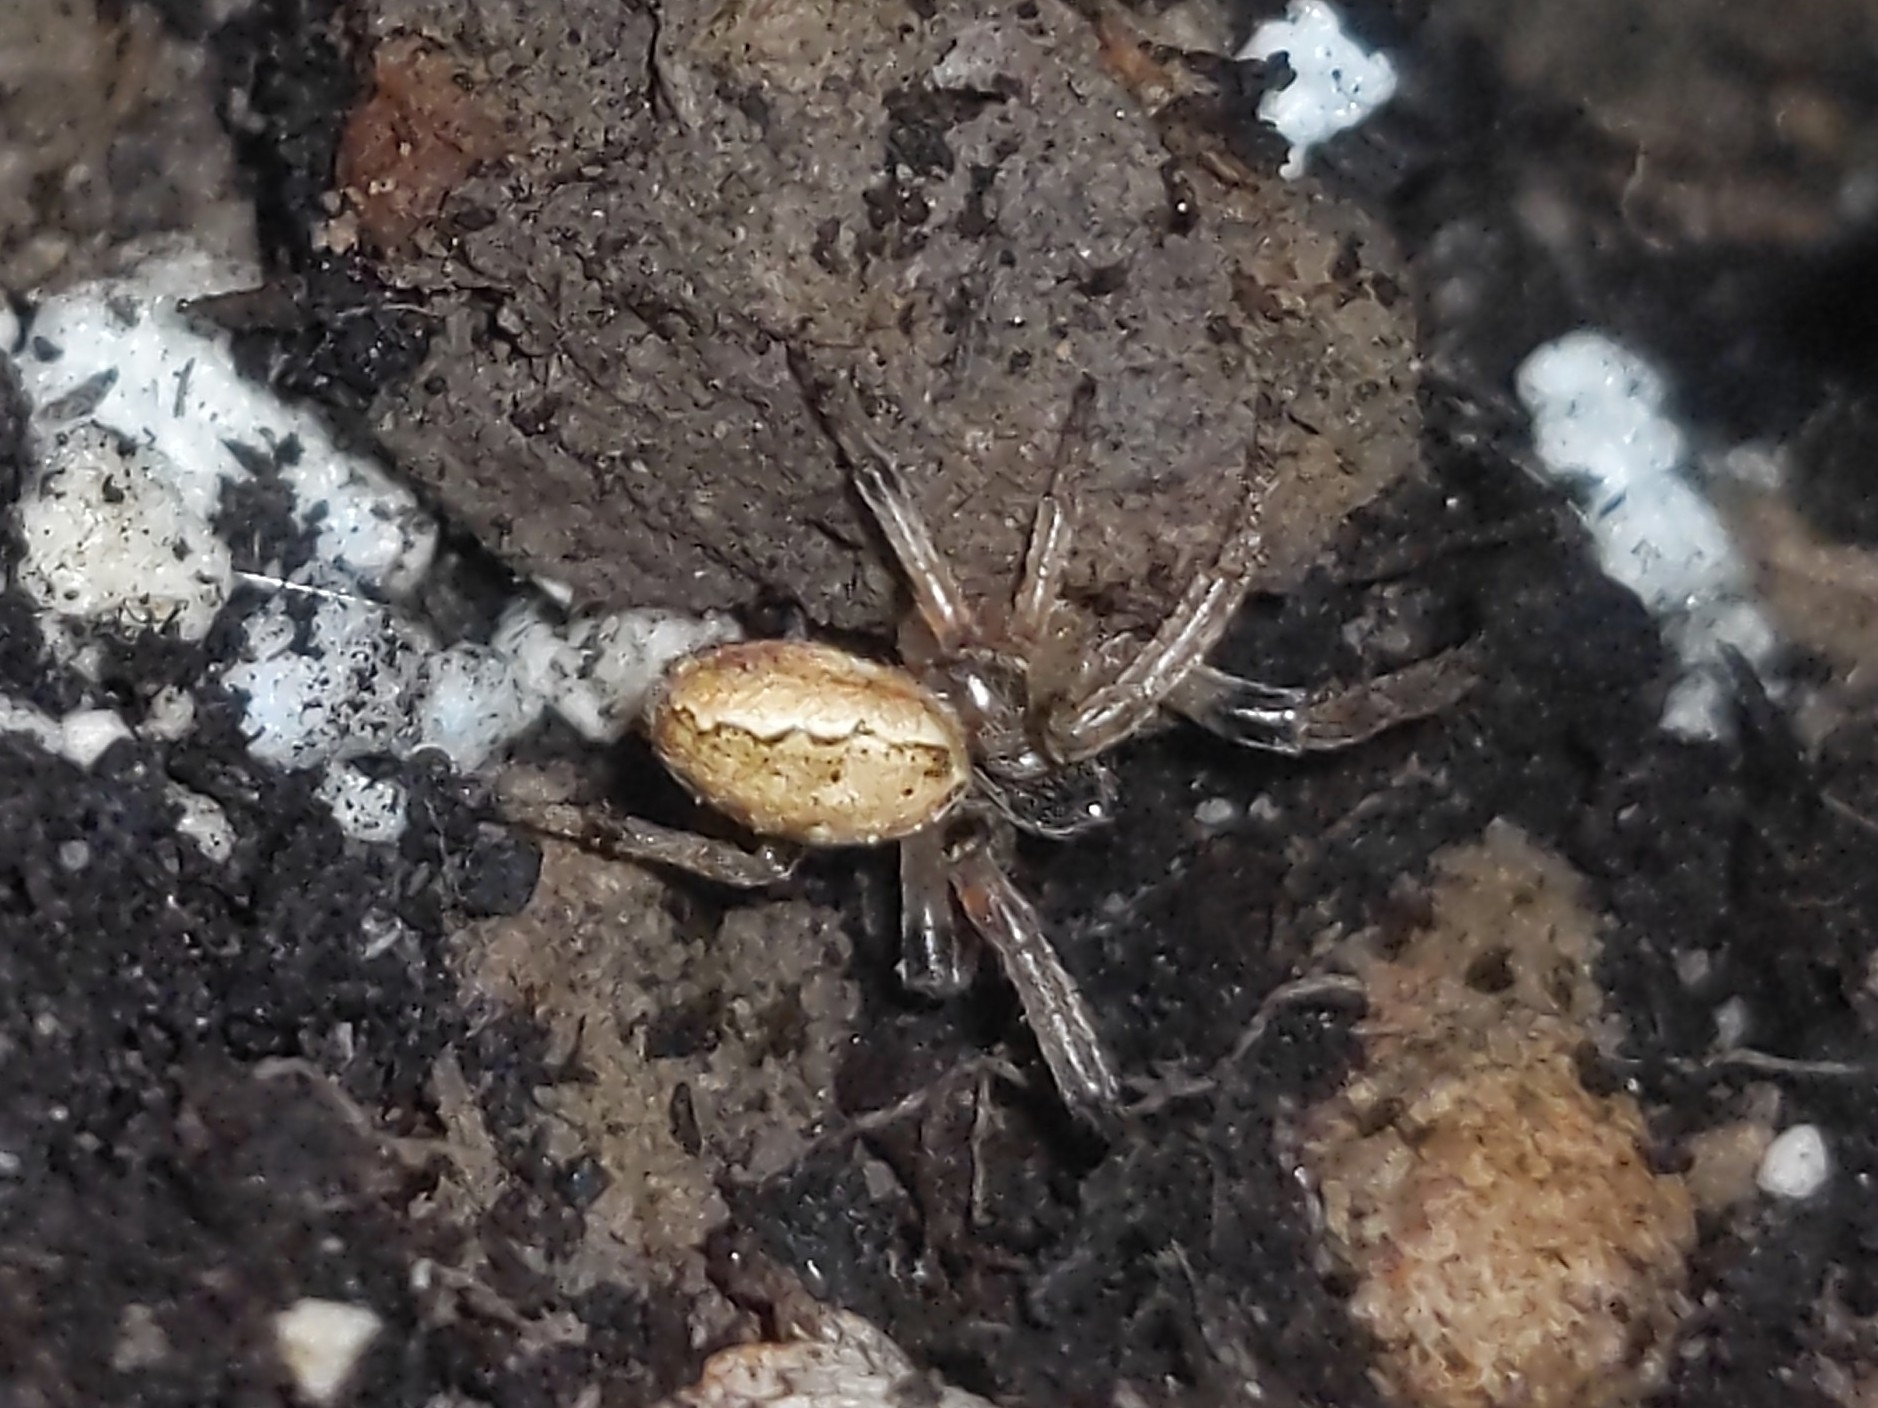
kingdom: Animalia
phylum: Arthropoda
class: Arachnida
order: Araneae
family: Araneidae
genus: Larinioides
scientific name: Larinioides cornutus
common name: Furrow orbweaver
